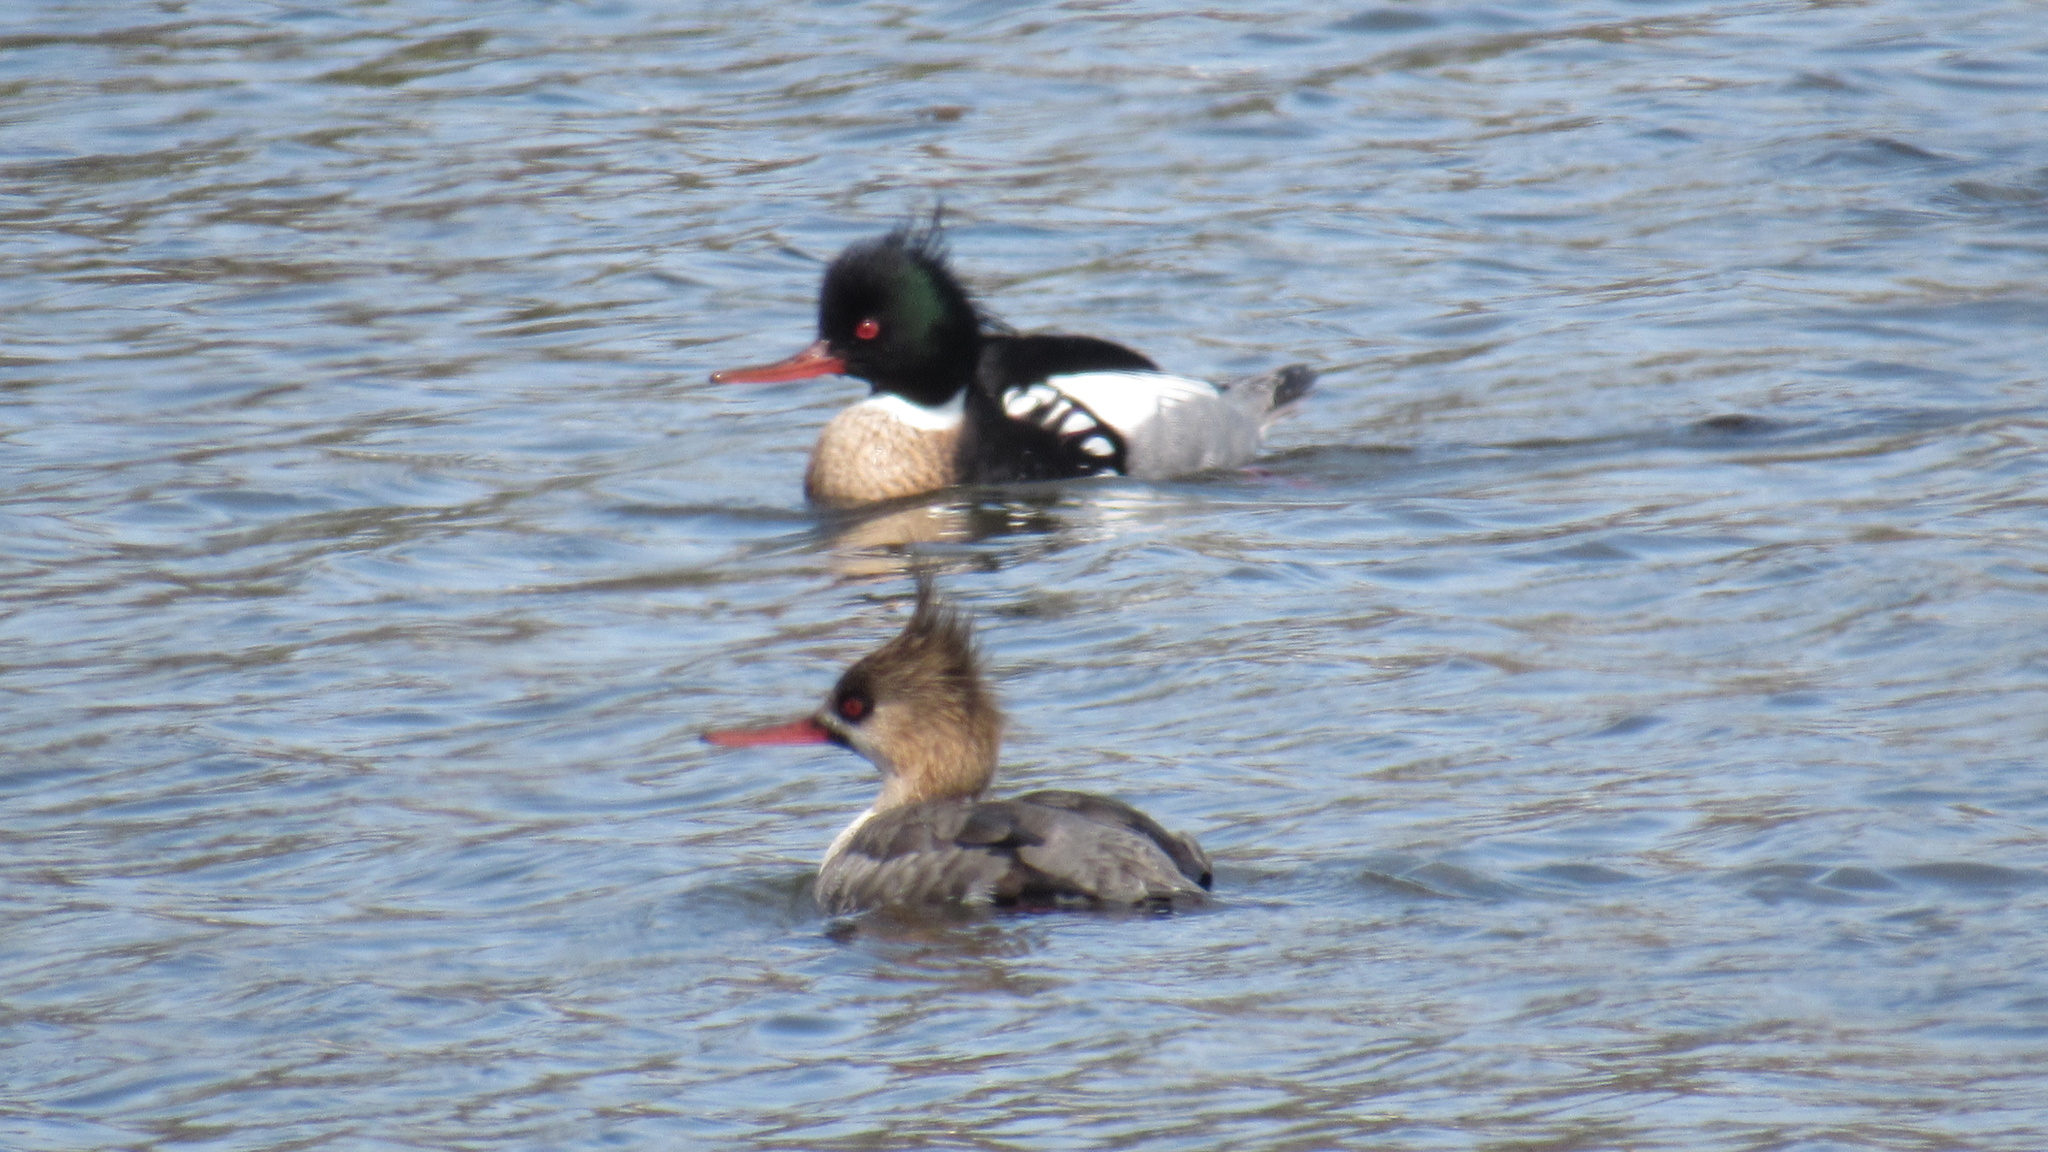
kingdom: Animalia
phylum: Chordata
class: Aves
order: Anseriformes
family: Anatidae
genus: Mergus
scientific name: Mergus serrator
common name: Red-breasted merganser
